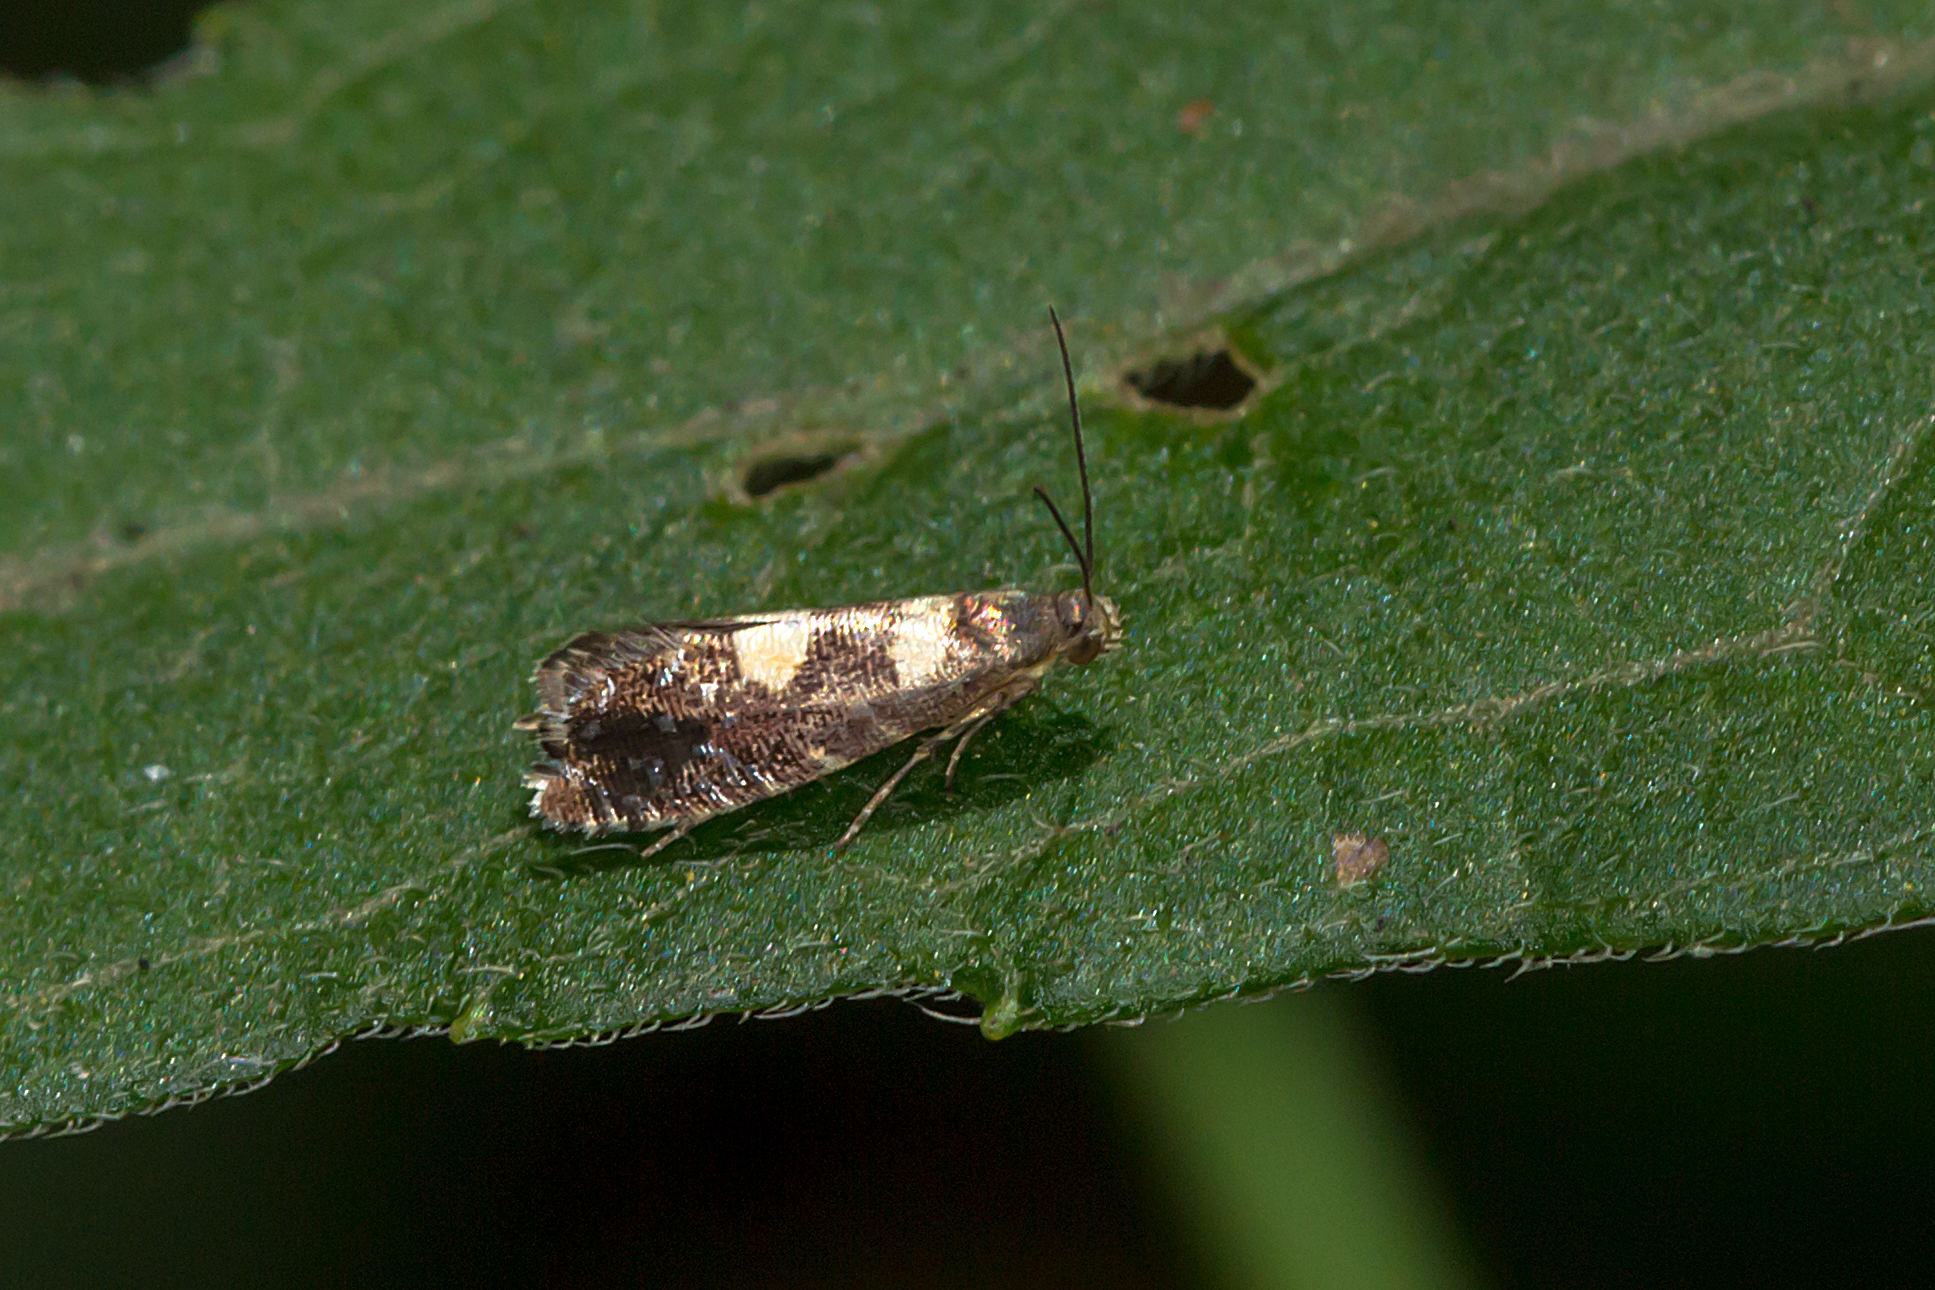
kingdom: Animalia
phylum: Arthropoda
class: Insecta
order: Lepidoptera
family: Glyphipterigidae
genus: Glyphipterix
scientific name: Glyphipterix chrysoplanetis
